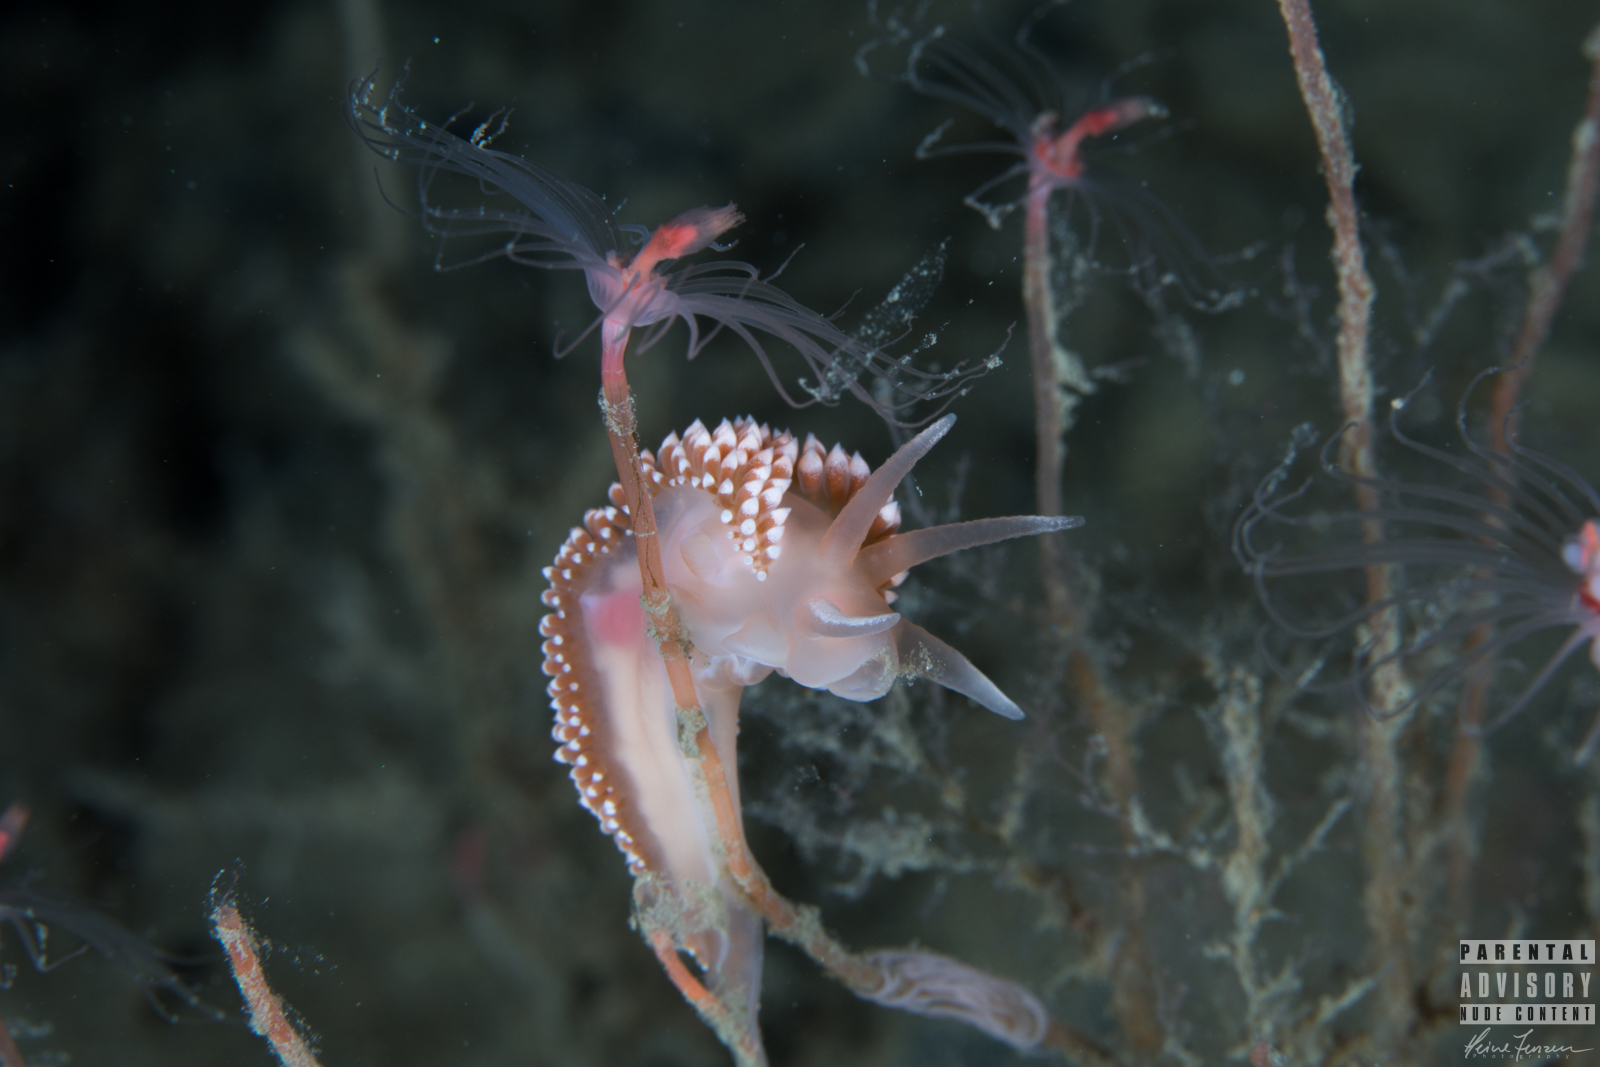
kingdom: Animalia
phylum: Mollusca
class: Gastropoda
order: Nudibranchia
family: Coryphellidae
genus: Coryphella
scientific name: Coryphella verrucosa
